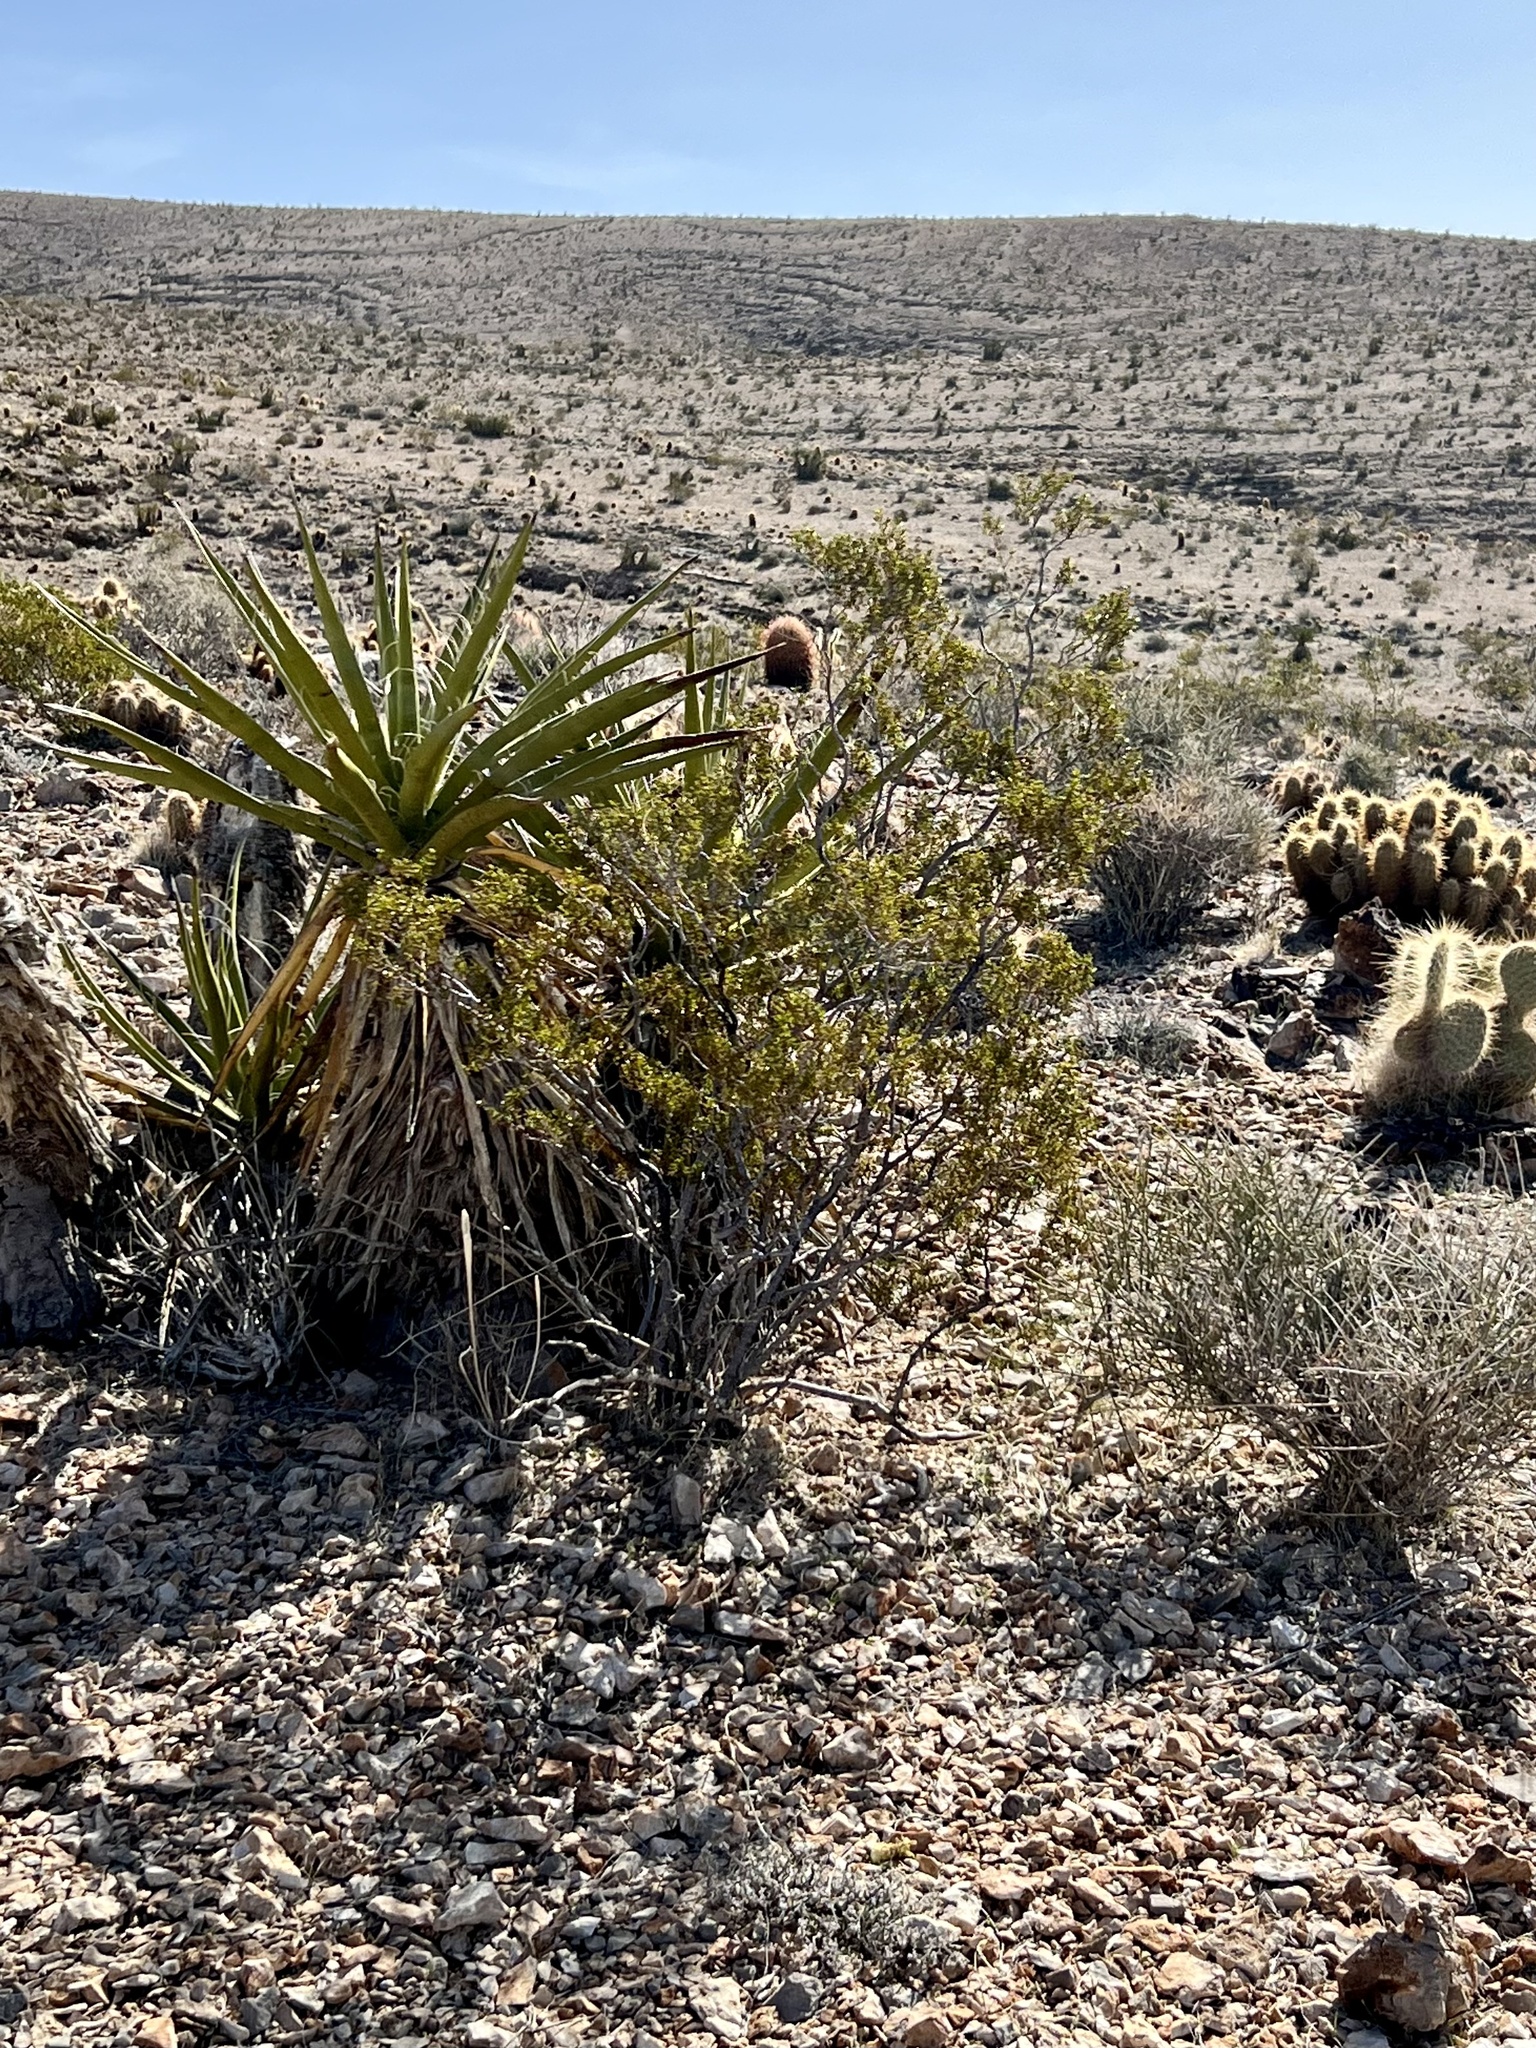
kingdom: Plantae
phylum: Tracheophyta
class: Magnoliopsida
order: Zygophyllales
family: Zygophyllaceae
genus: Larrea
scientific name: Larrea tridentata
